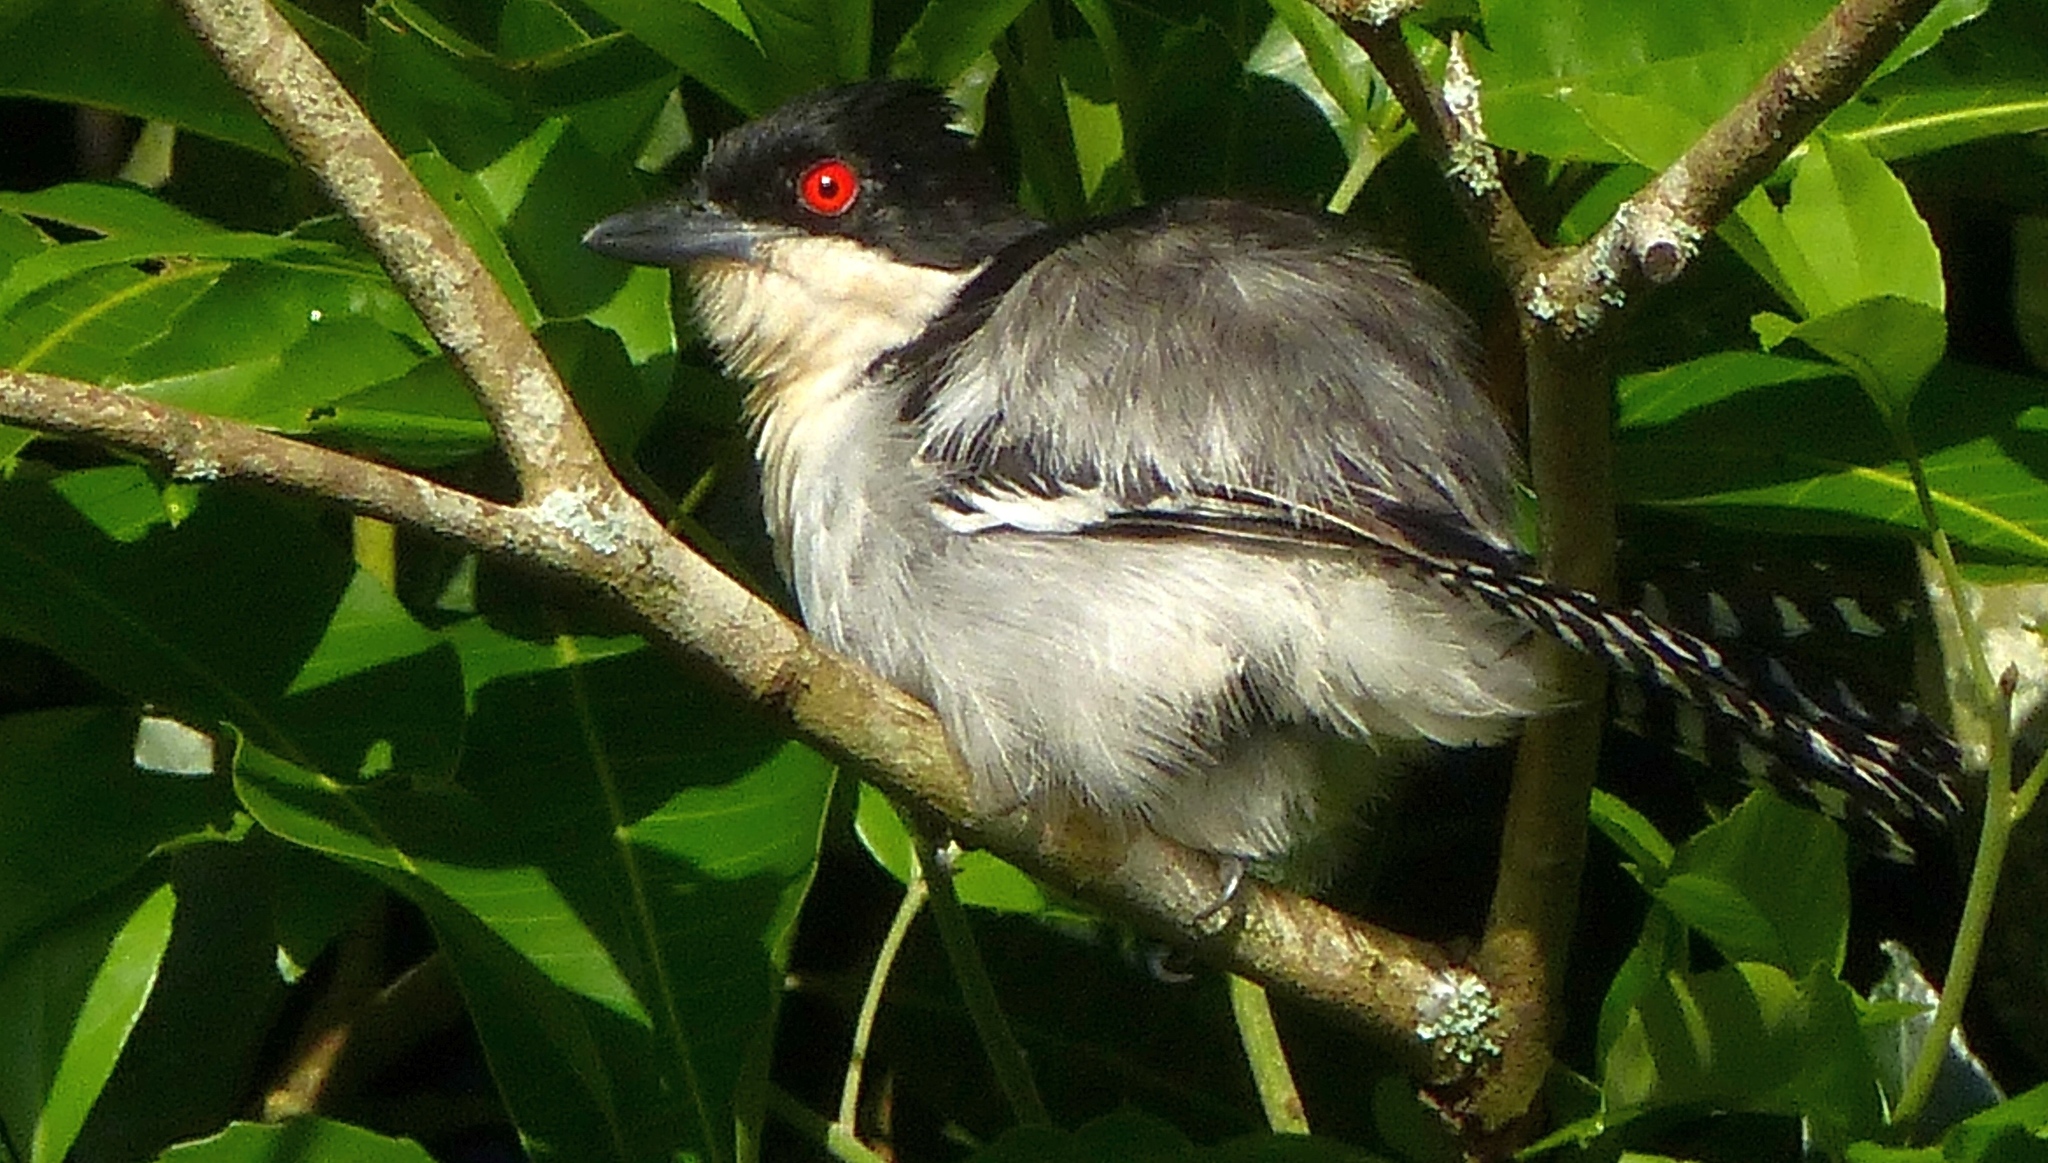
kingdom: Animalia
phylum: Chordata
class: Aves
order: Passeriformes
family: Thamnophilidae
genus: Taraba
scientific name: Taraba major
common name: Great antshrike
